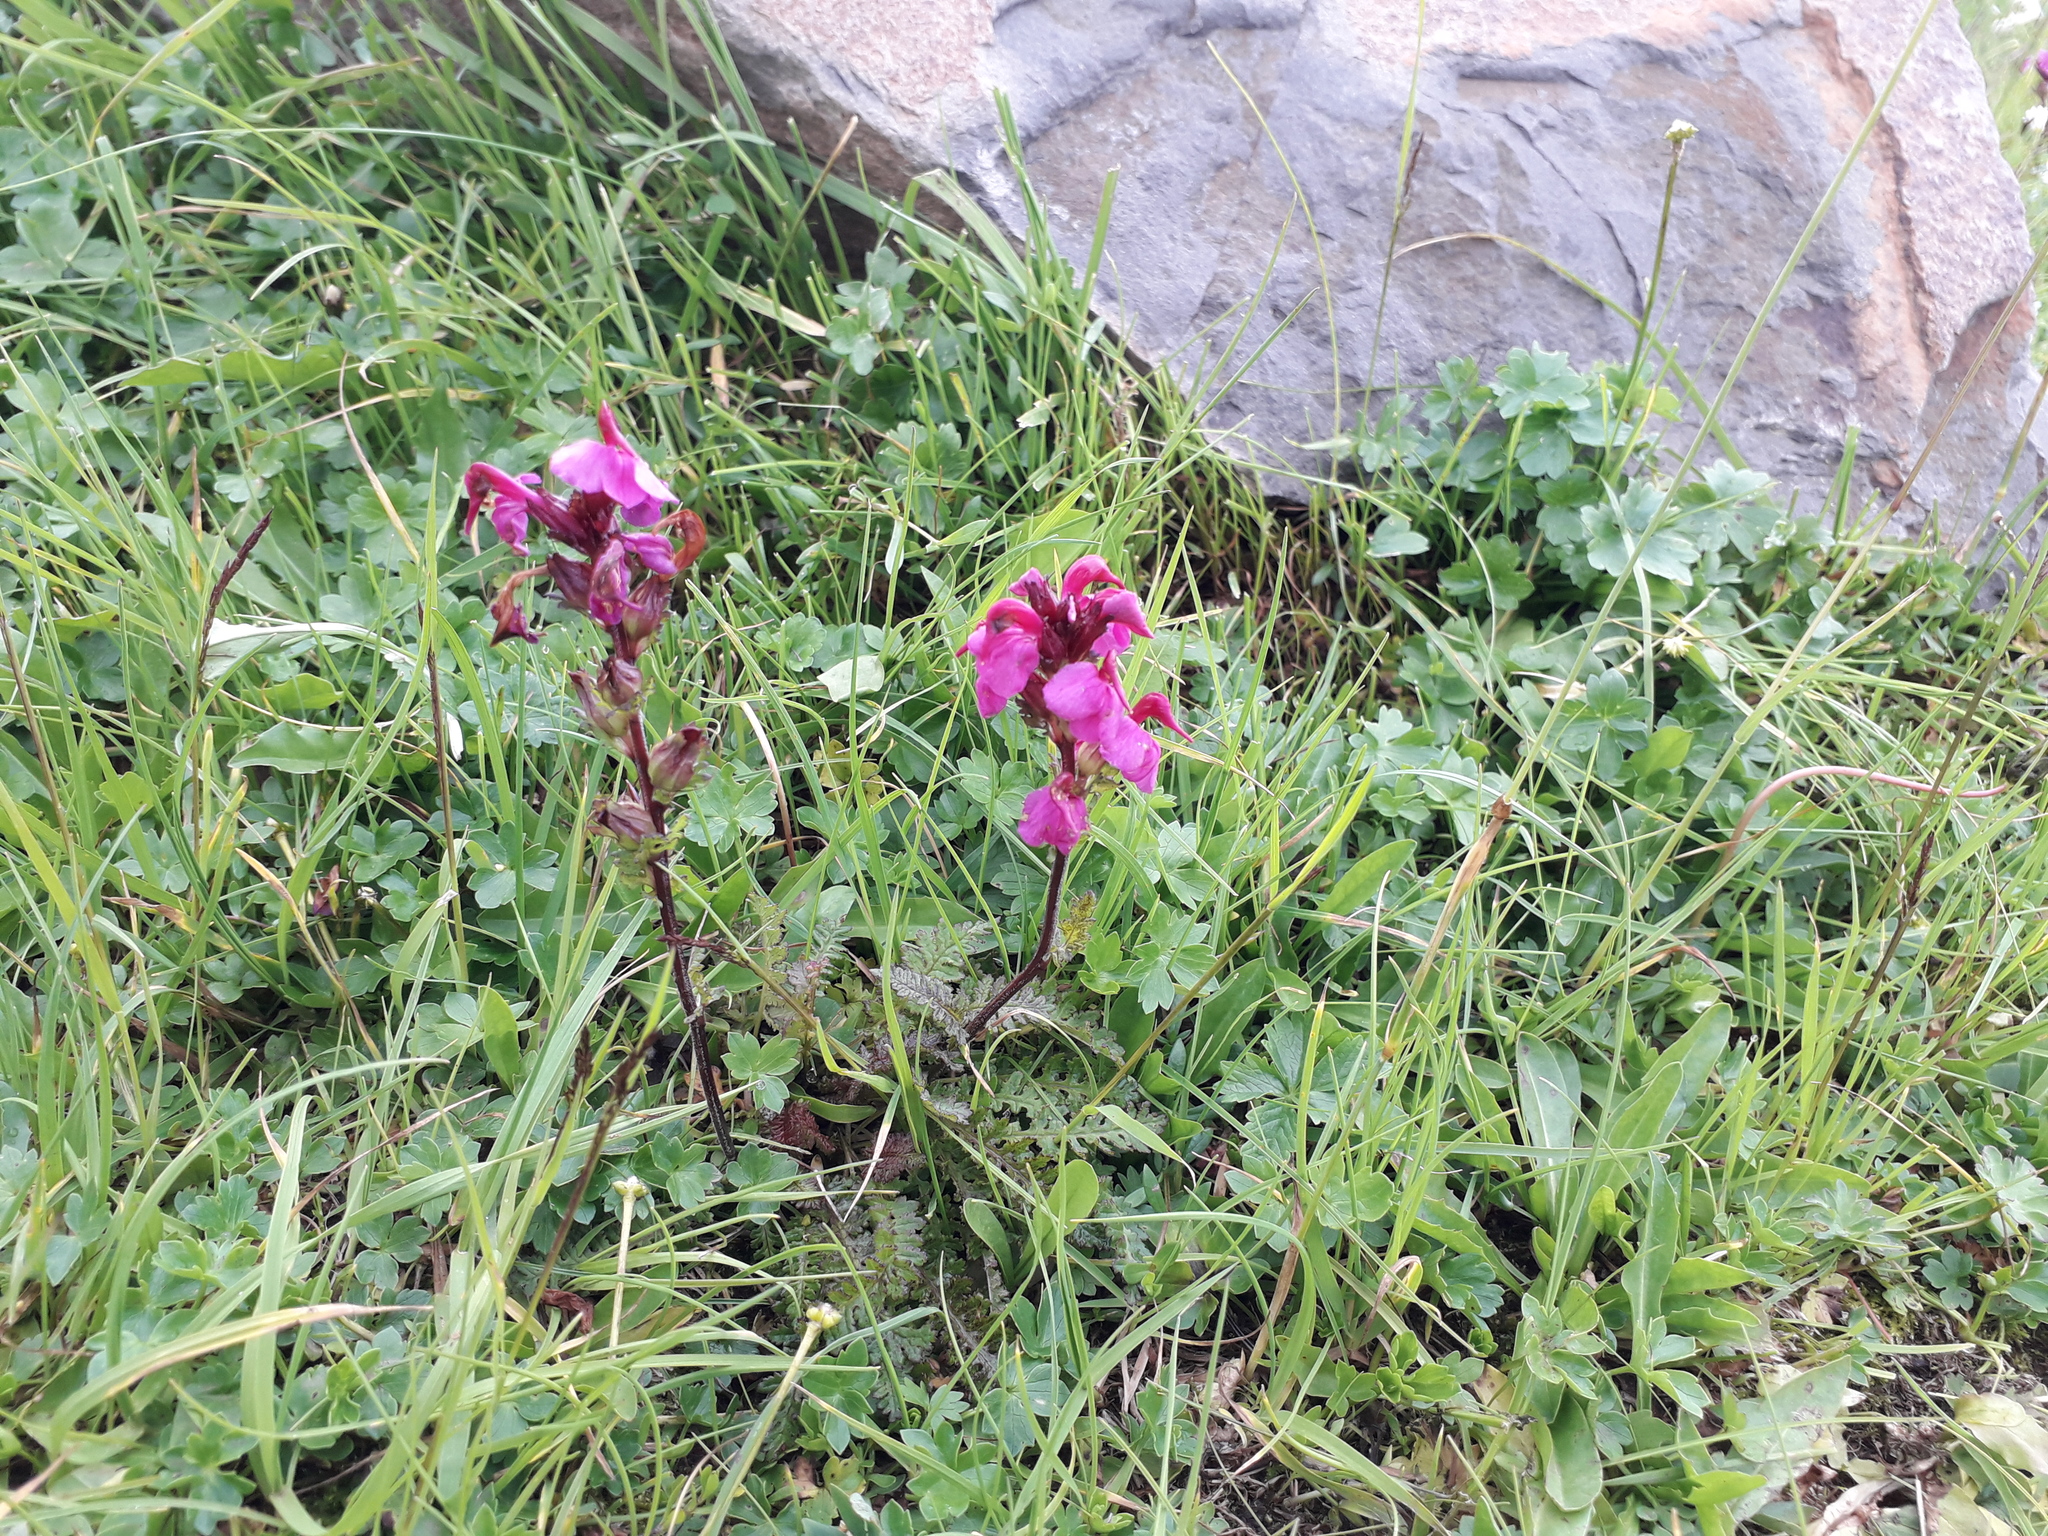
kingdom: Plantae
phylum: Tracheophyta
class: Magnoliopsida
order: Lamiales
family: Orobanchaceae
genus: Pedicularis
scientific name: Pedicularis nordmanniana
